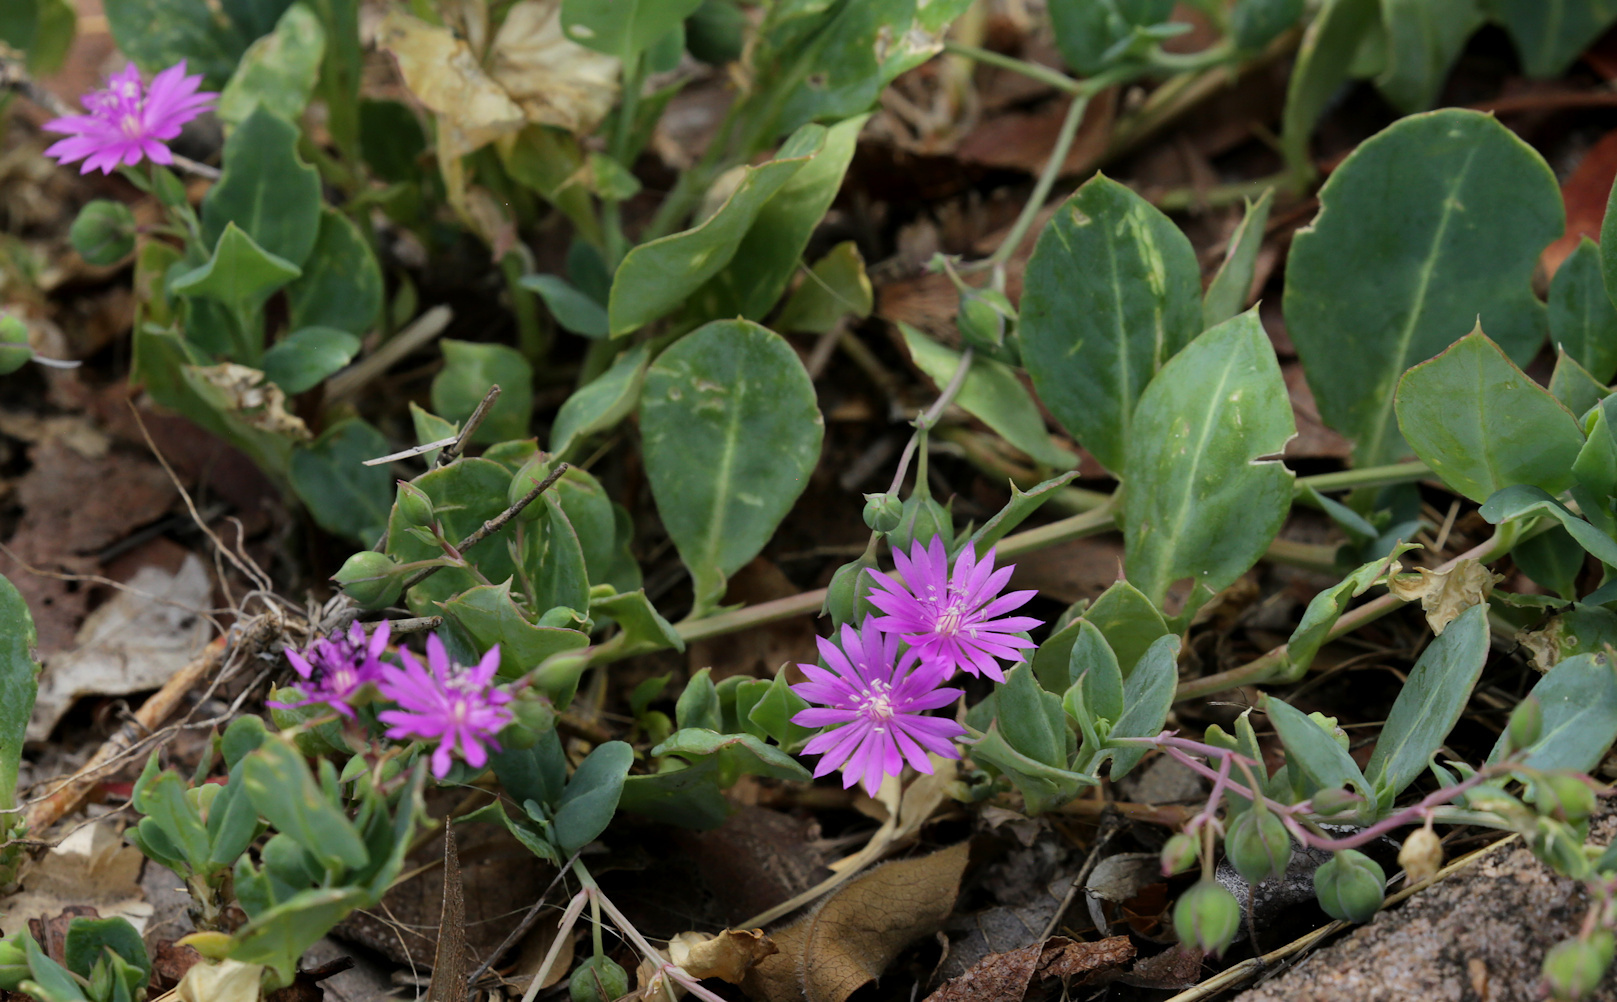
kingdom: Plantae
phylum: Tracheophyta
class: Magnoliopsida
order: Caryophyllales
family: Corbichoniaceae
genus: Corbichonia
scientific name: Corbichonia decumbens
